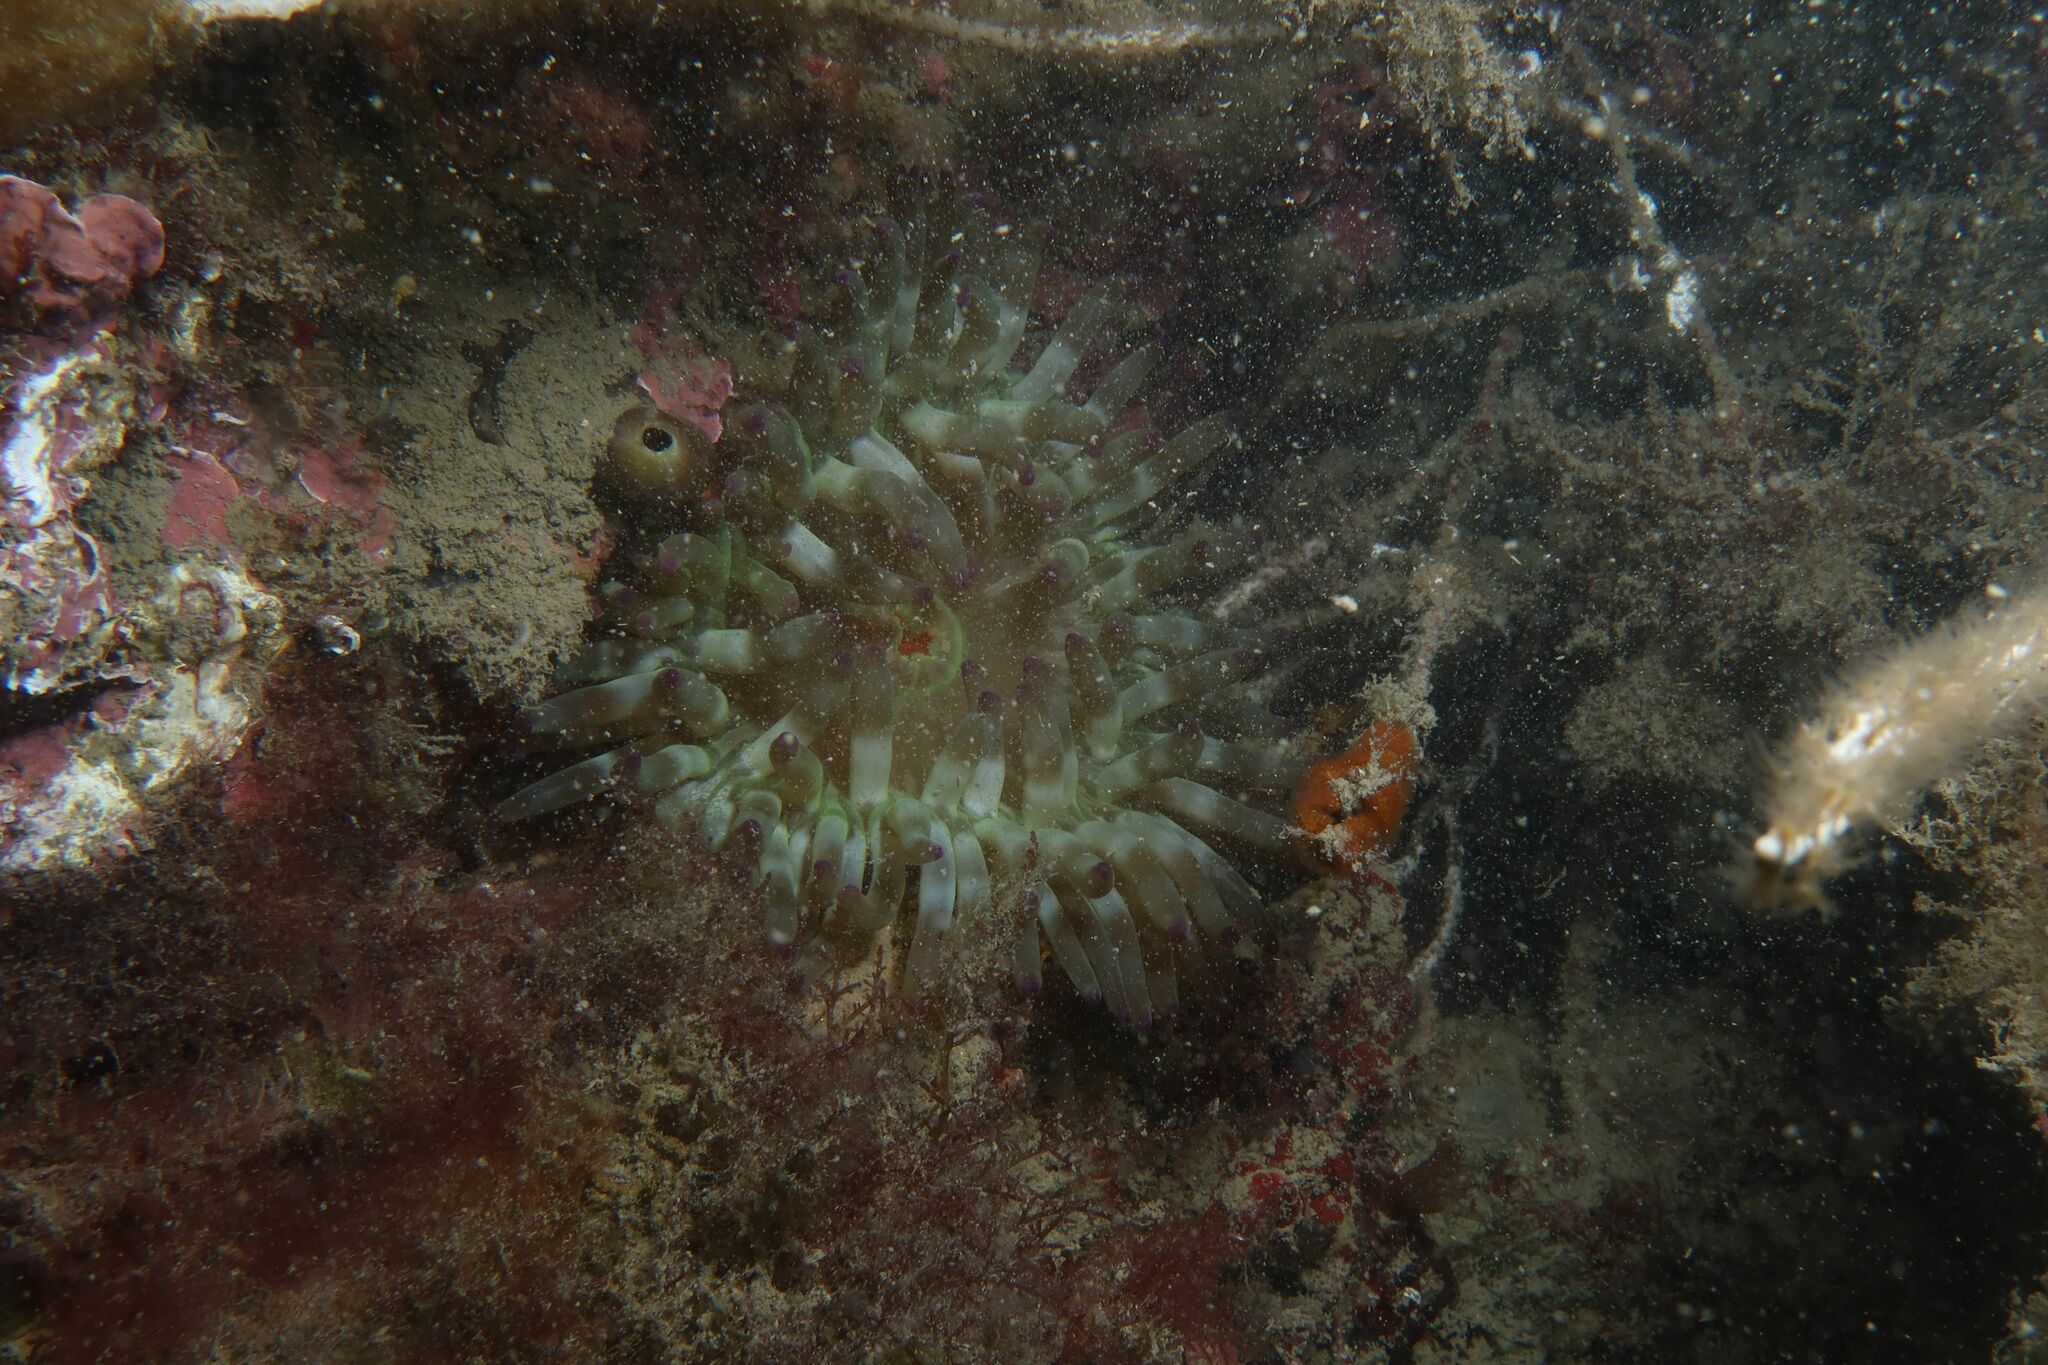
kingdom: Animalia
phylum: Cnidaria
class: Anthozoa
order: Actiniaria
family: Actiniidae
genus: Cribrinopsis
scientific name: Cribrinopsis crassa
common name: Fat anemone
